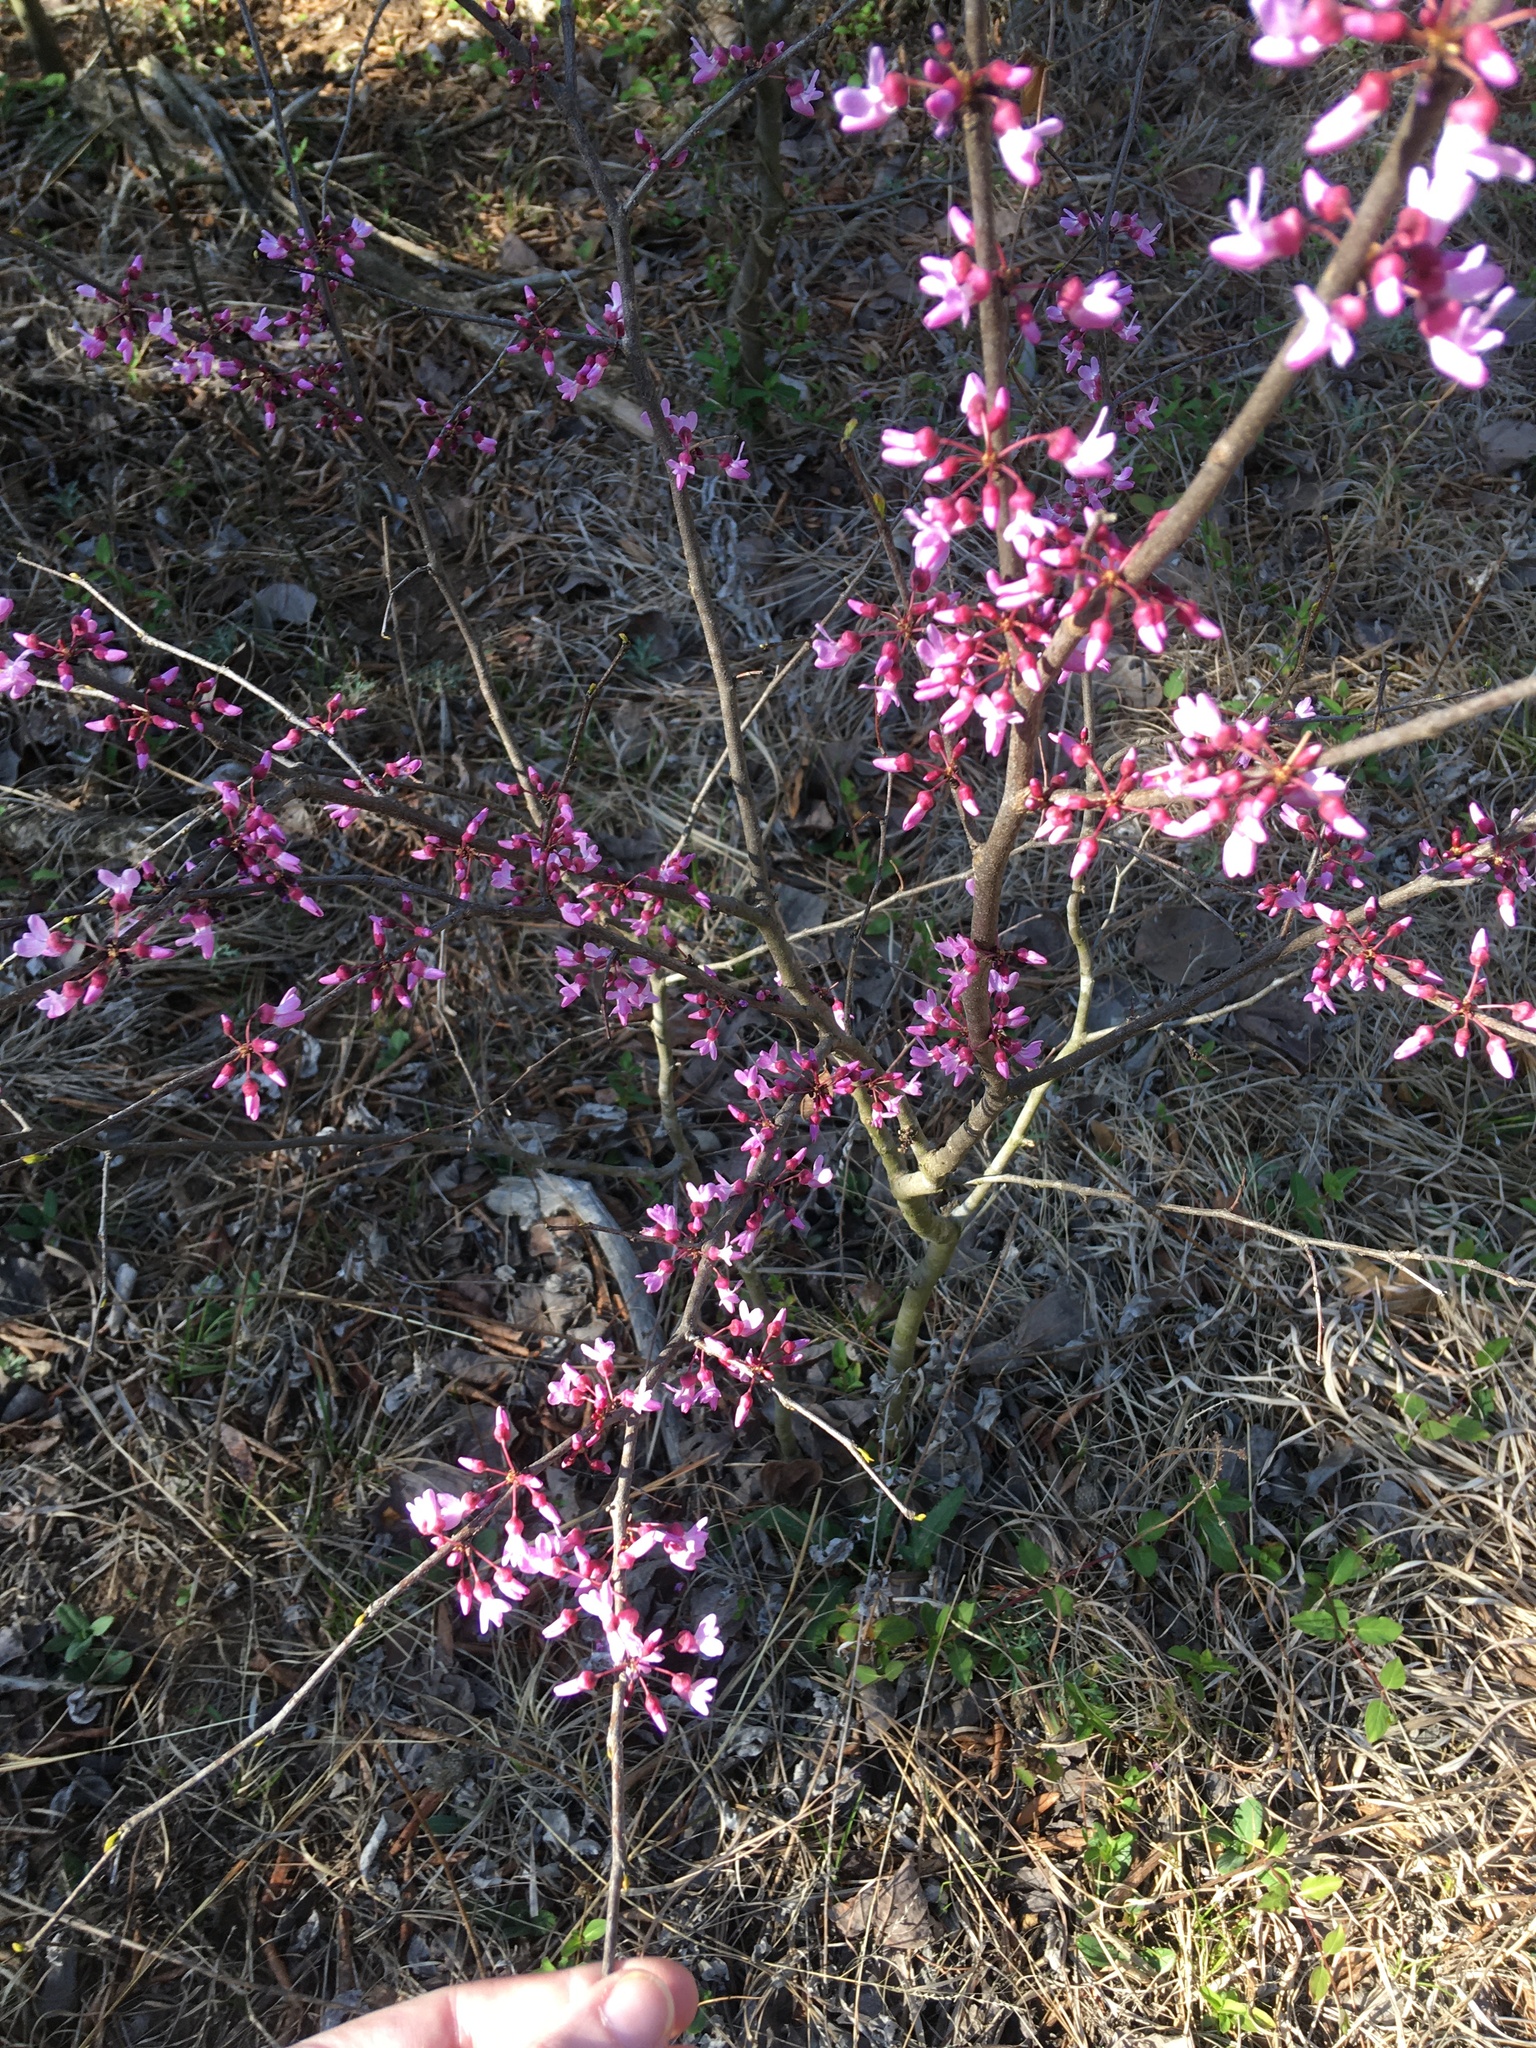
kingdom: Plantae
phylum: Tracheophyta
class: Magnoliopsida
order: Fabales
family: Fabaceae
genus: Cercis
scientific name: Cercis canadensis
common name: Eastern redbud
